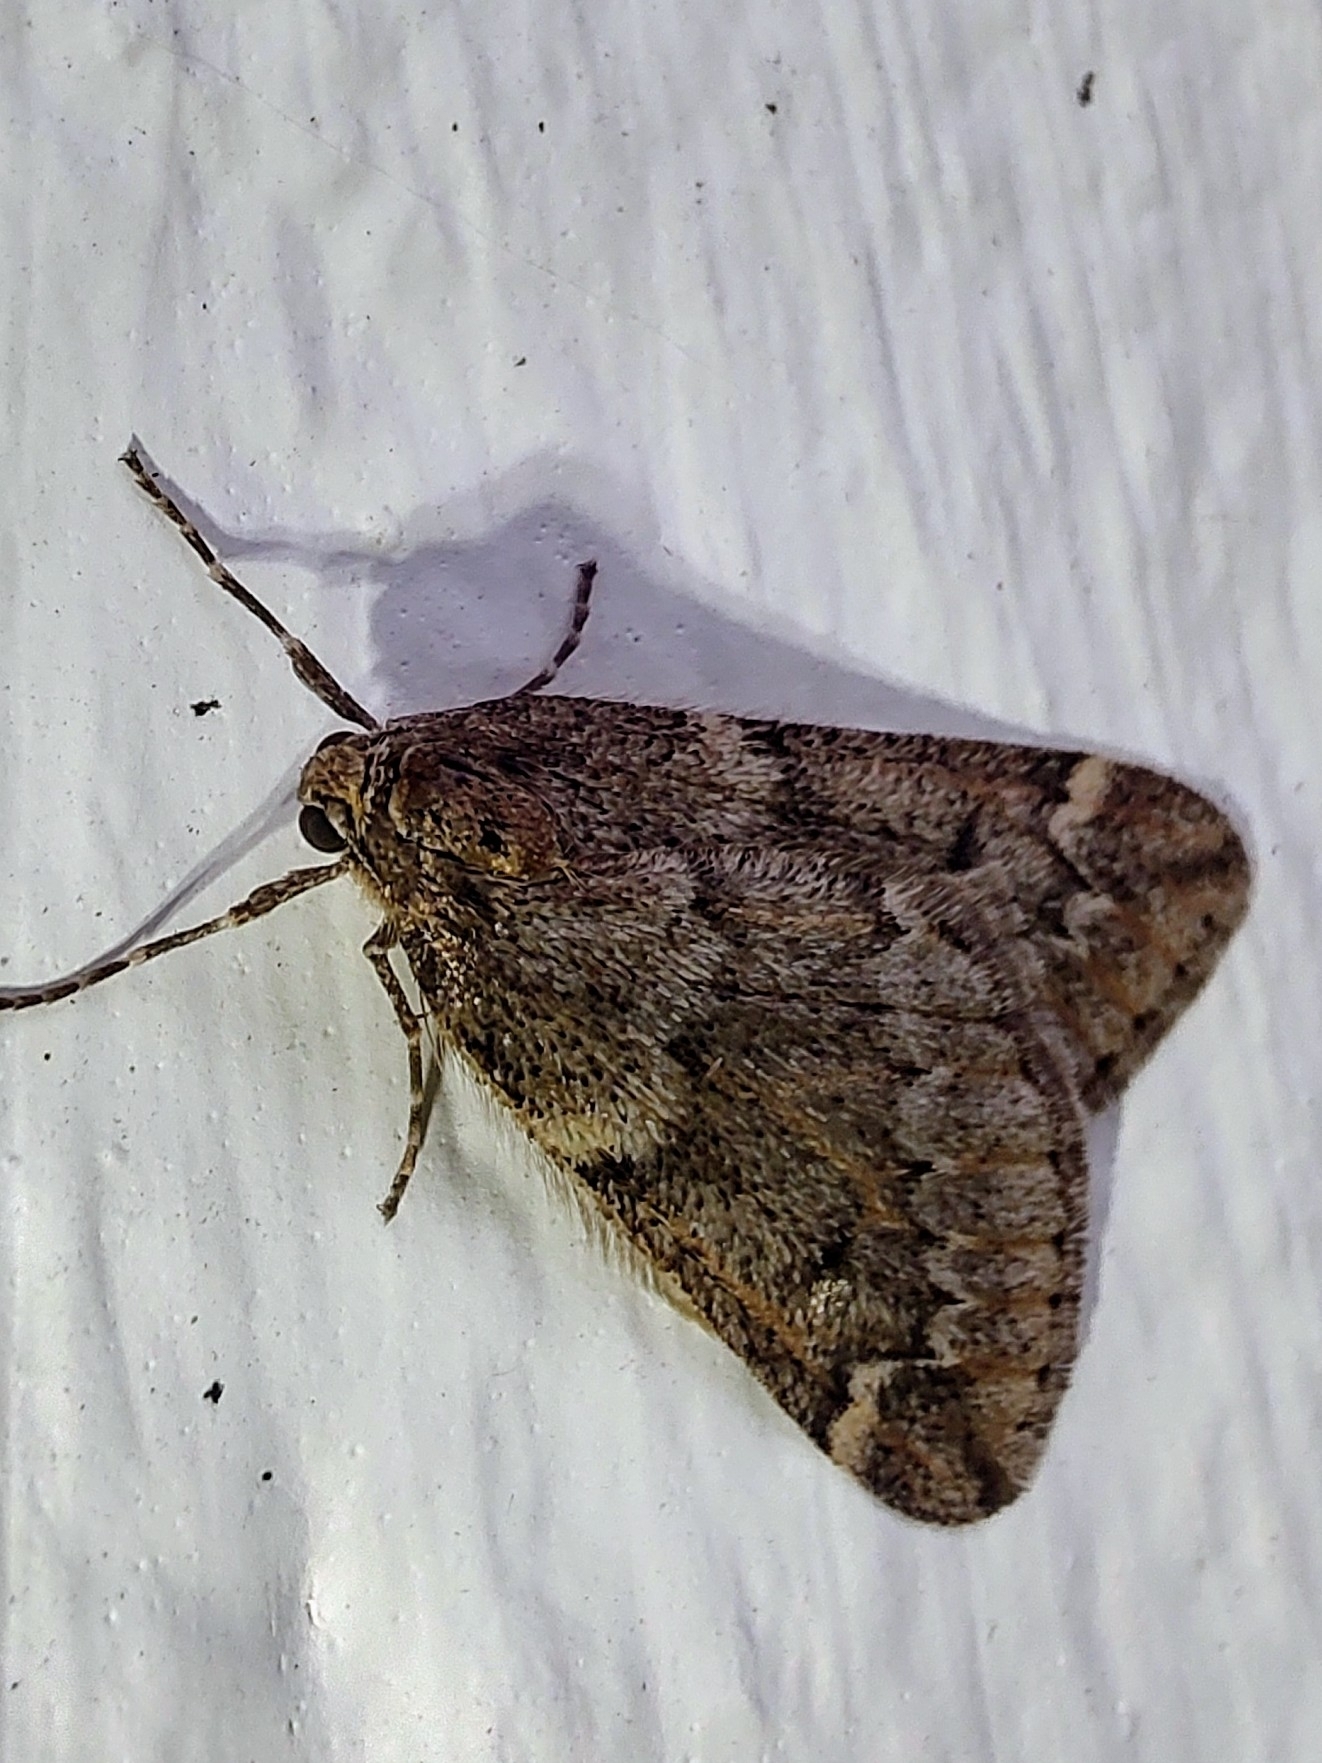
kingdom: Animalia
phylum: Arthropoda
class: Insecta
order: Lepidoptera
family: Geometridae
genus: Alsophila
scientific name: Alsophila aescularia
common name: March moth
